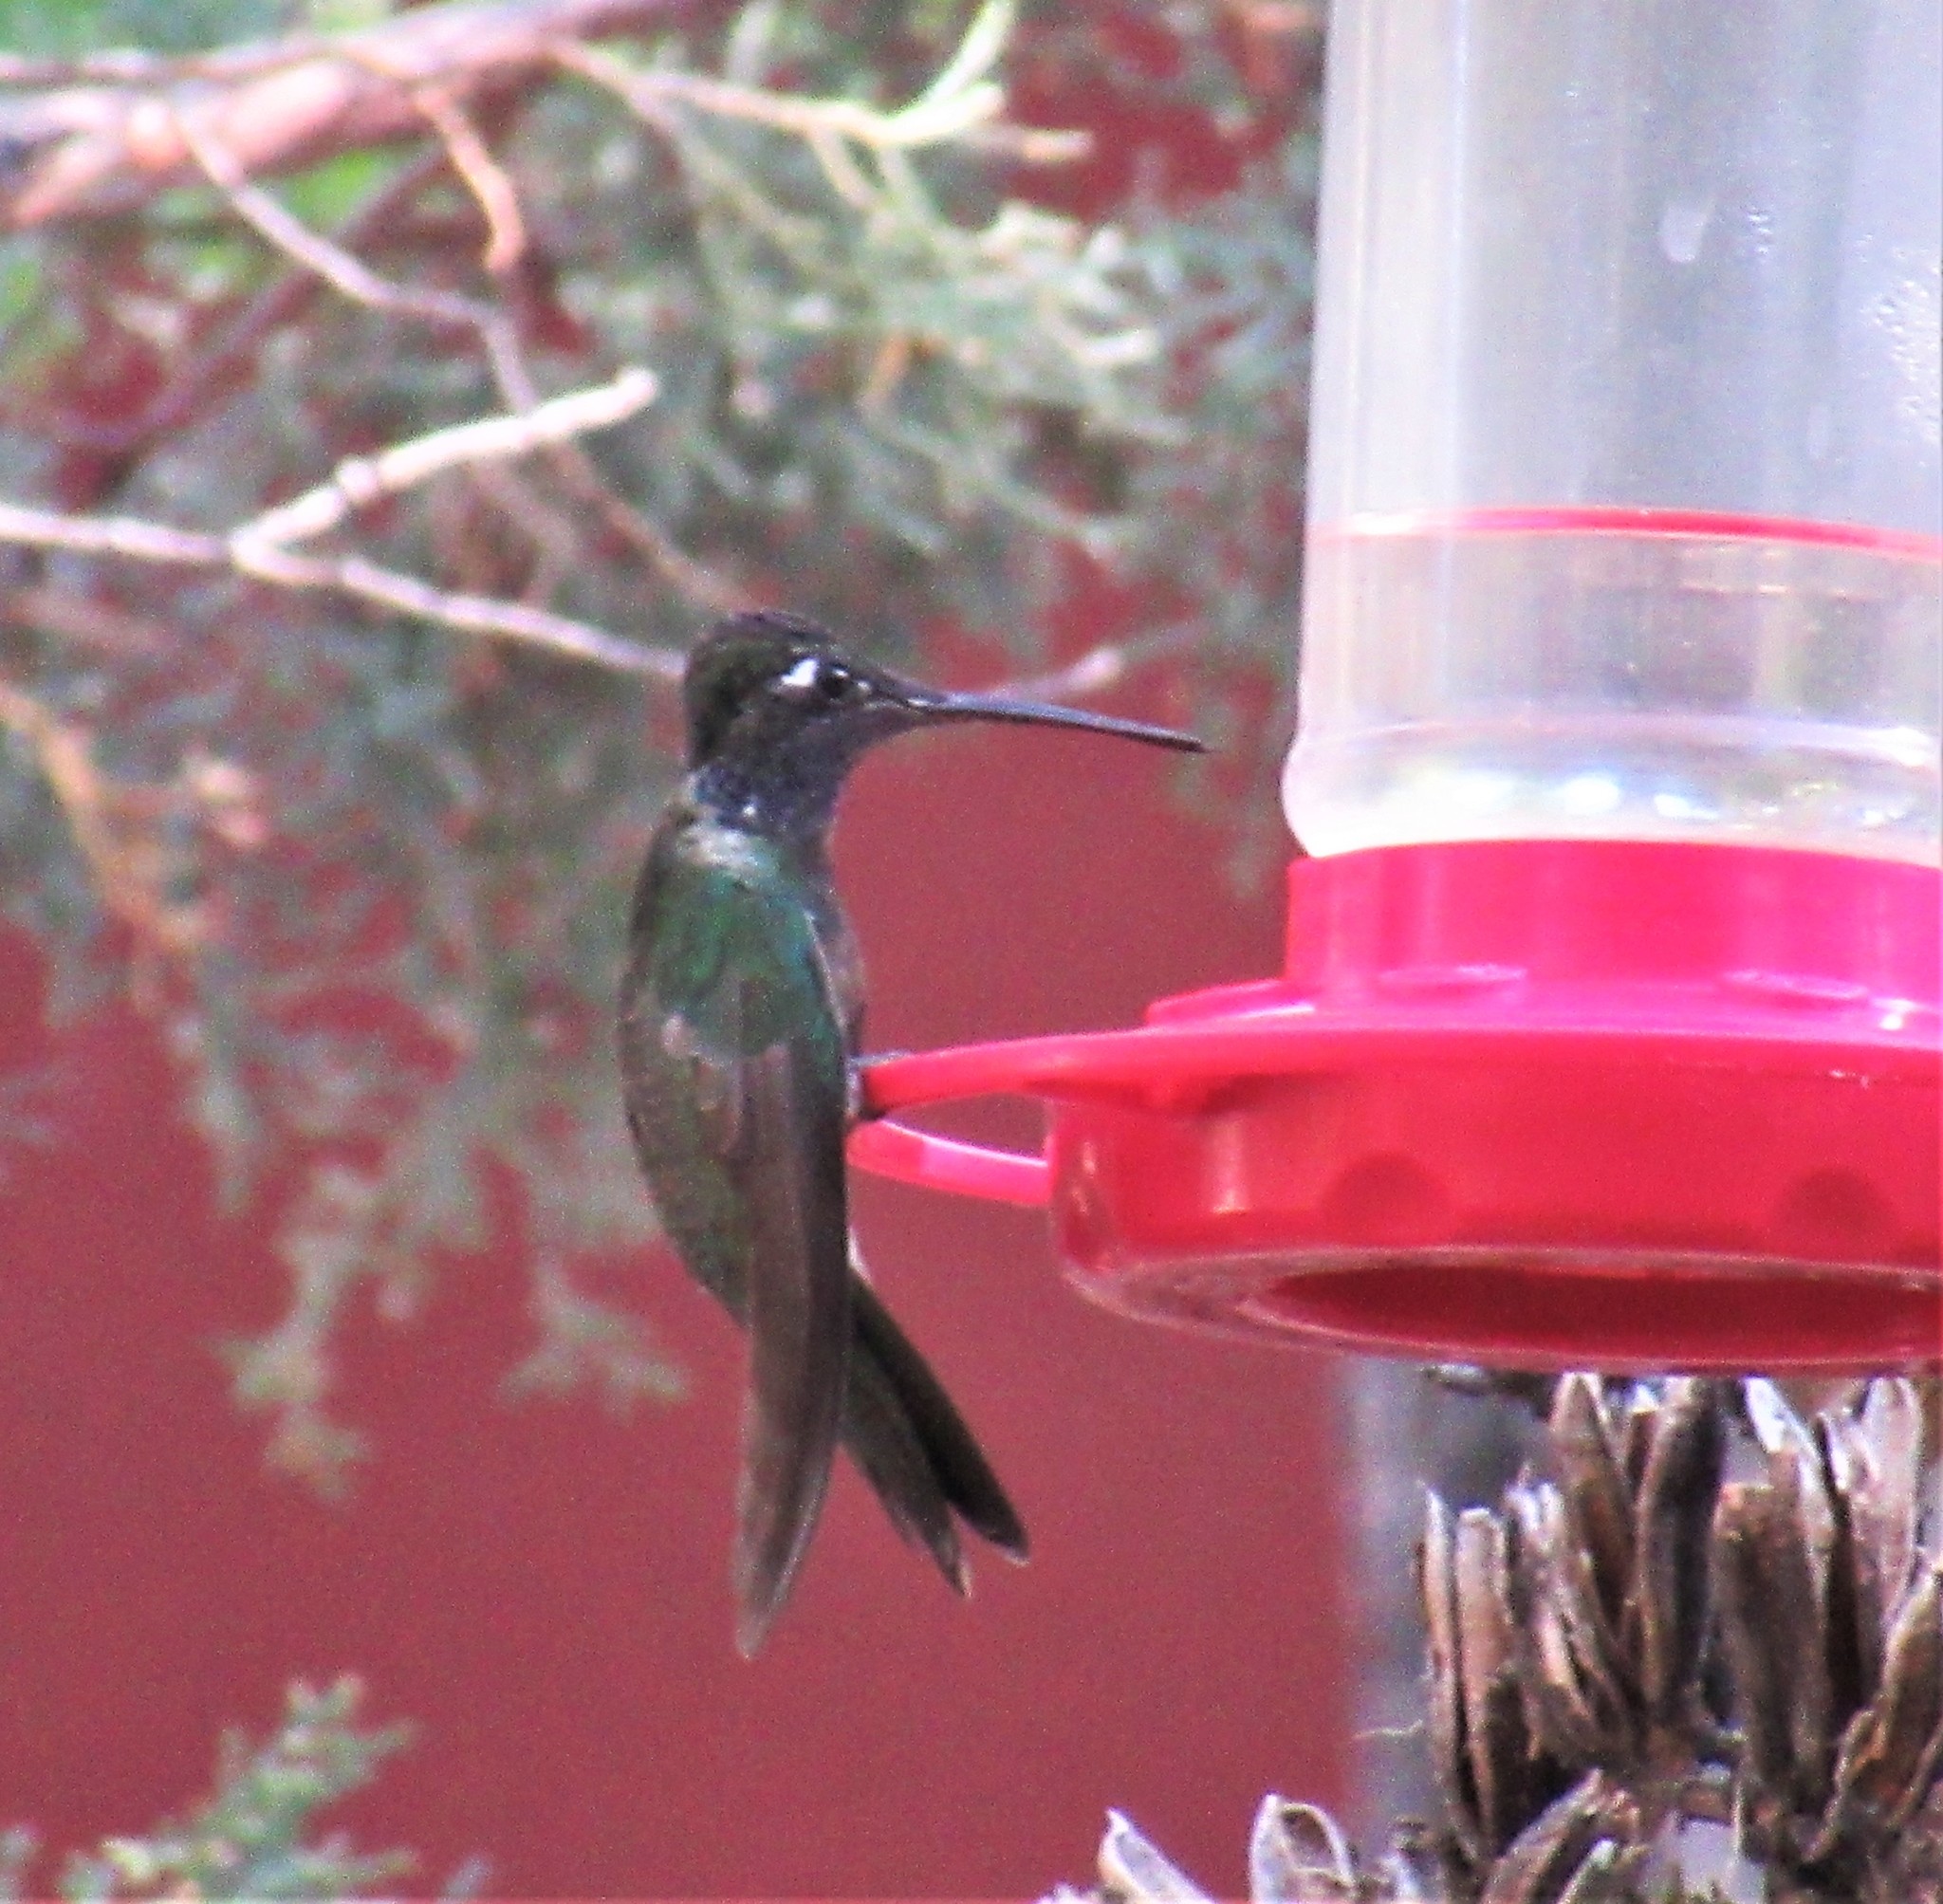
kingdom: Animalia
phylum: Chordata
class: Aves
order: Apodiformes
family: Trochilidae
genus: Eugenes
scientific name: Eugenes fulgens
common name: Magnificent hummingbird
